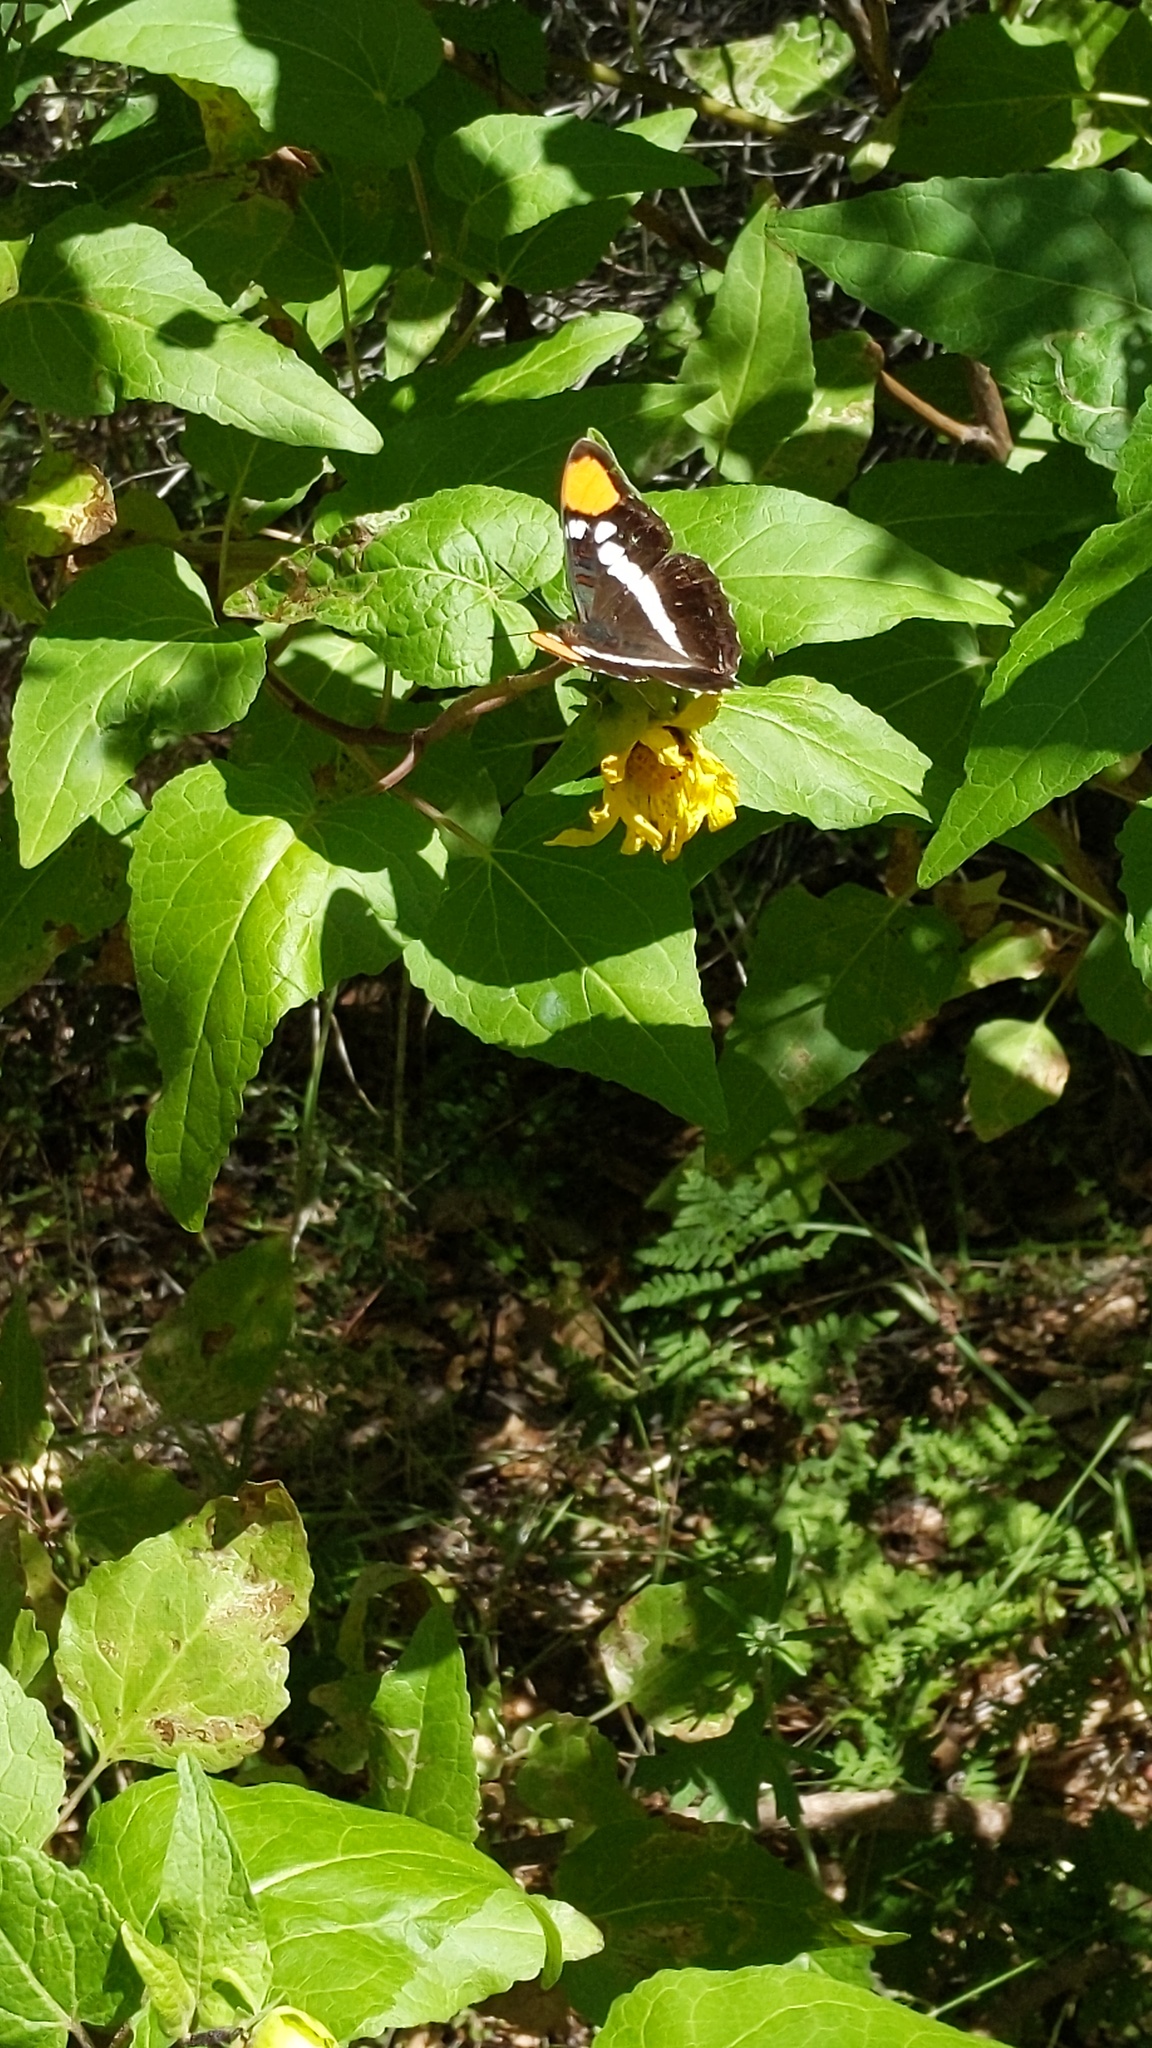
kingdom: Animalia
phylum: Arthropoda
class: Insecta
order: Lepidoptera
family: Nymphalidae
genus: Limenitis
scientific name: Limenitis bredowii
